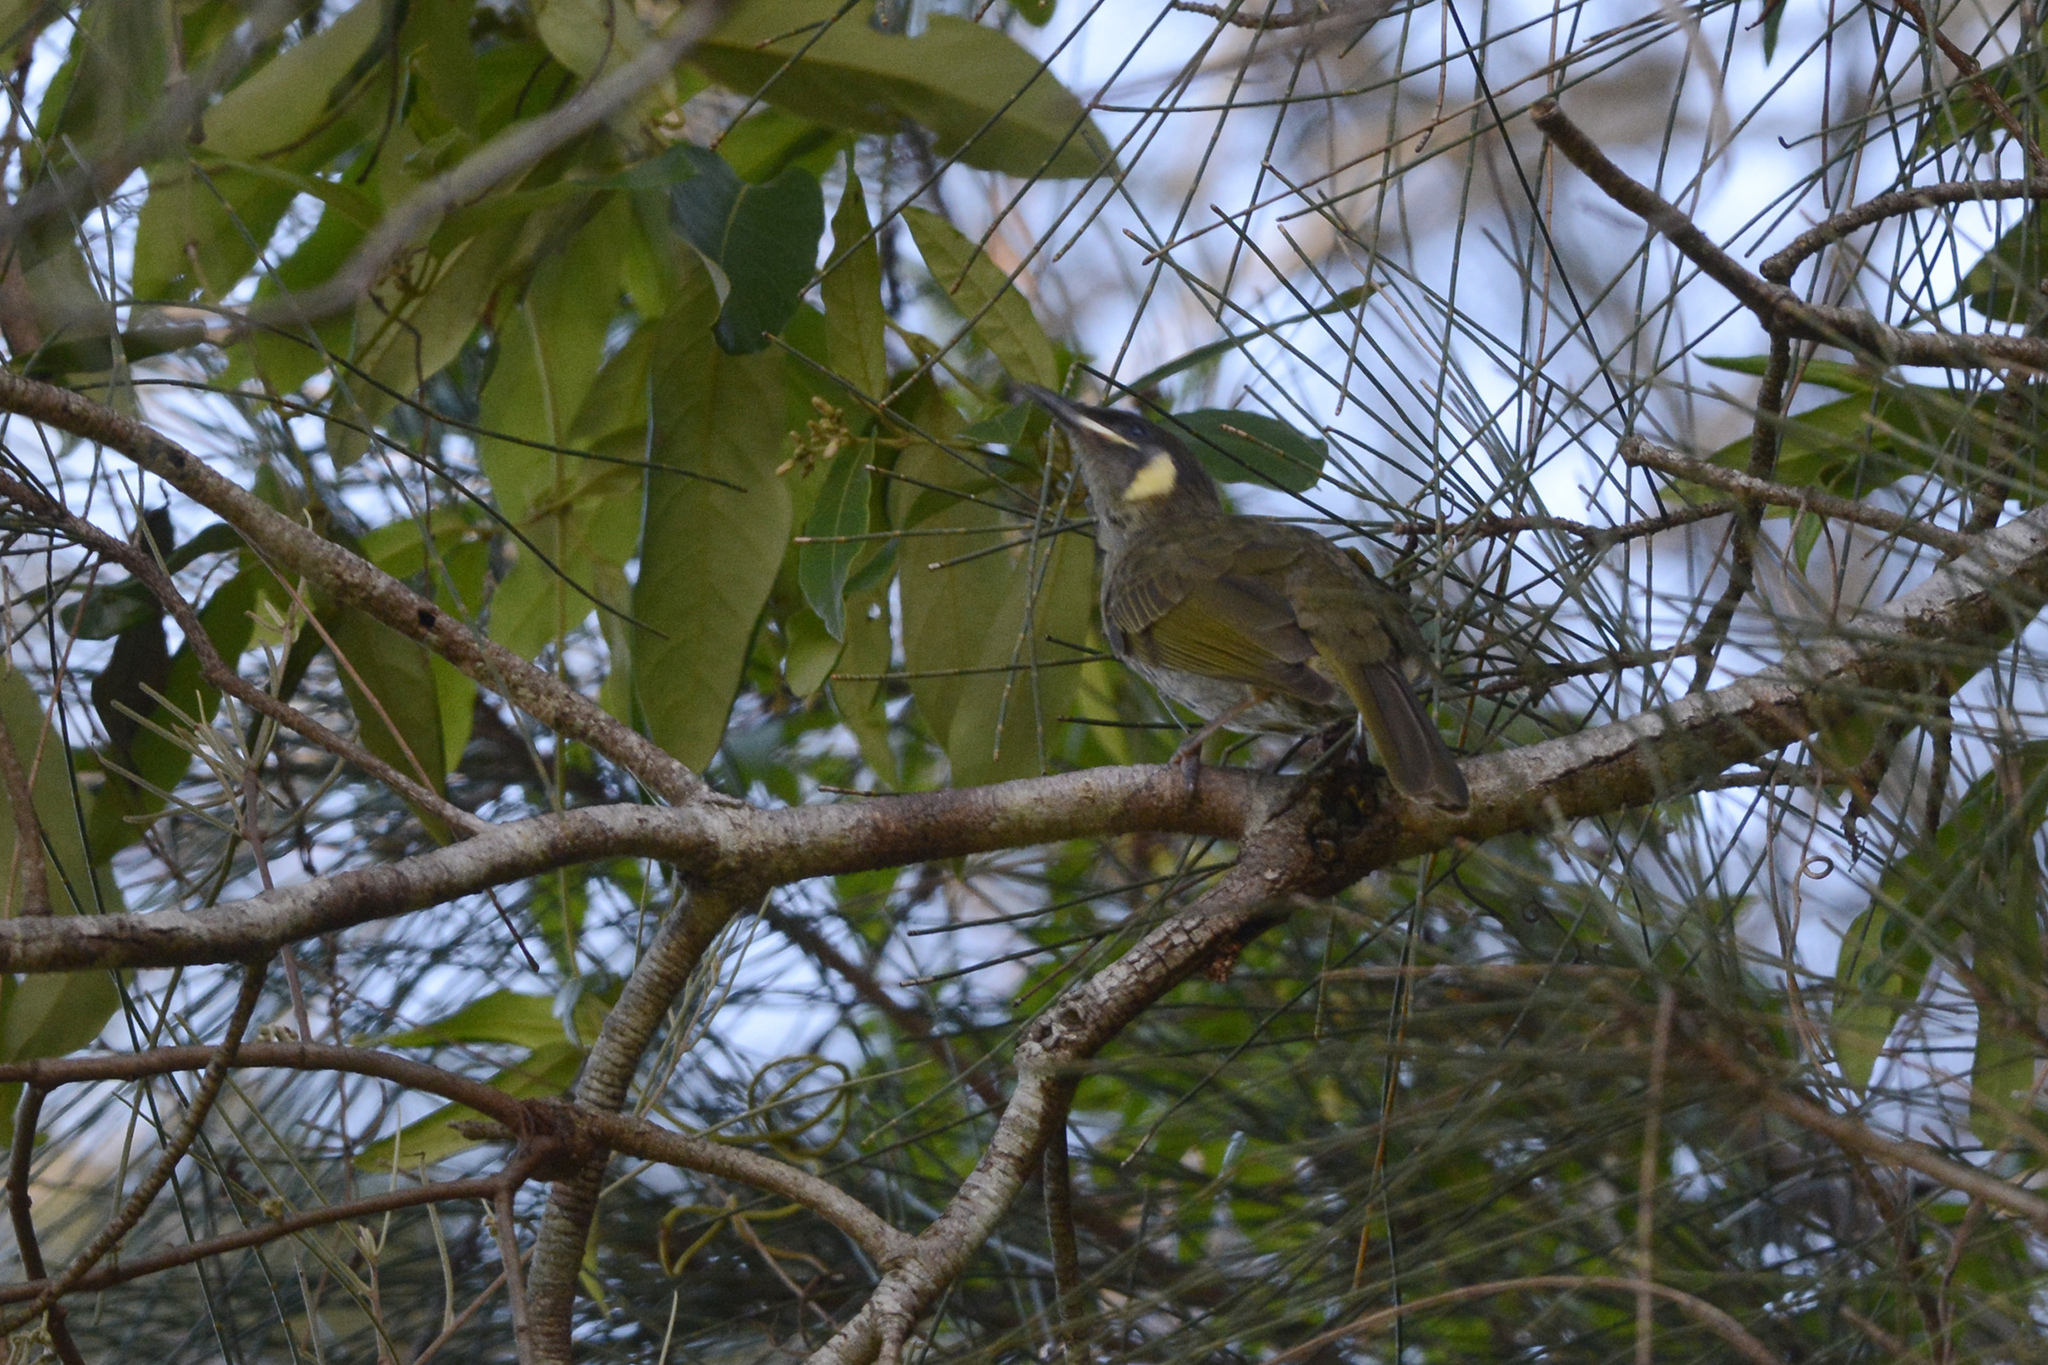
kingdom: Animalia
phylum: Chordata
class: Aves
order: Passeriformes
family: Meliphagidae
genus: Meliphaga
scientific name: Meliphaga lewinii
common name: Lewin's honeyeater
